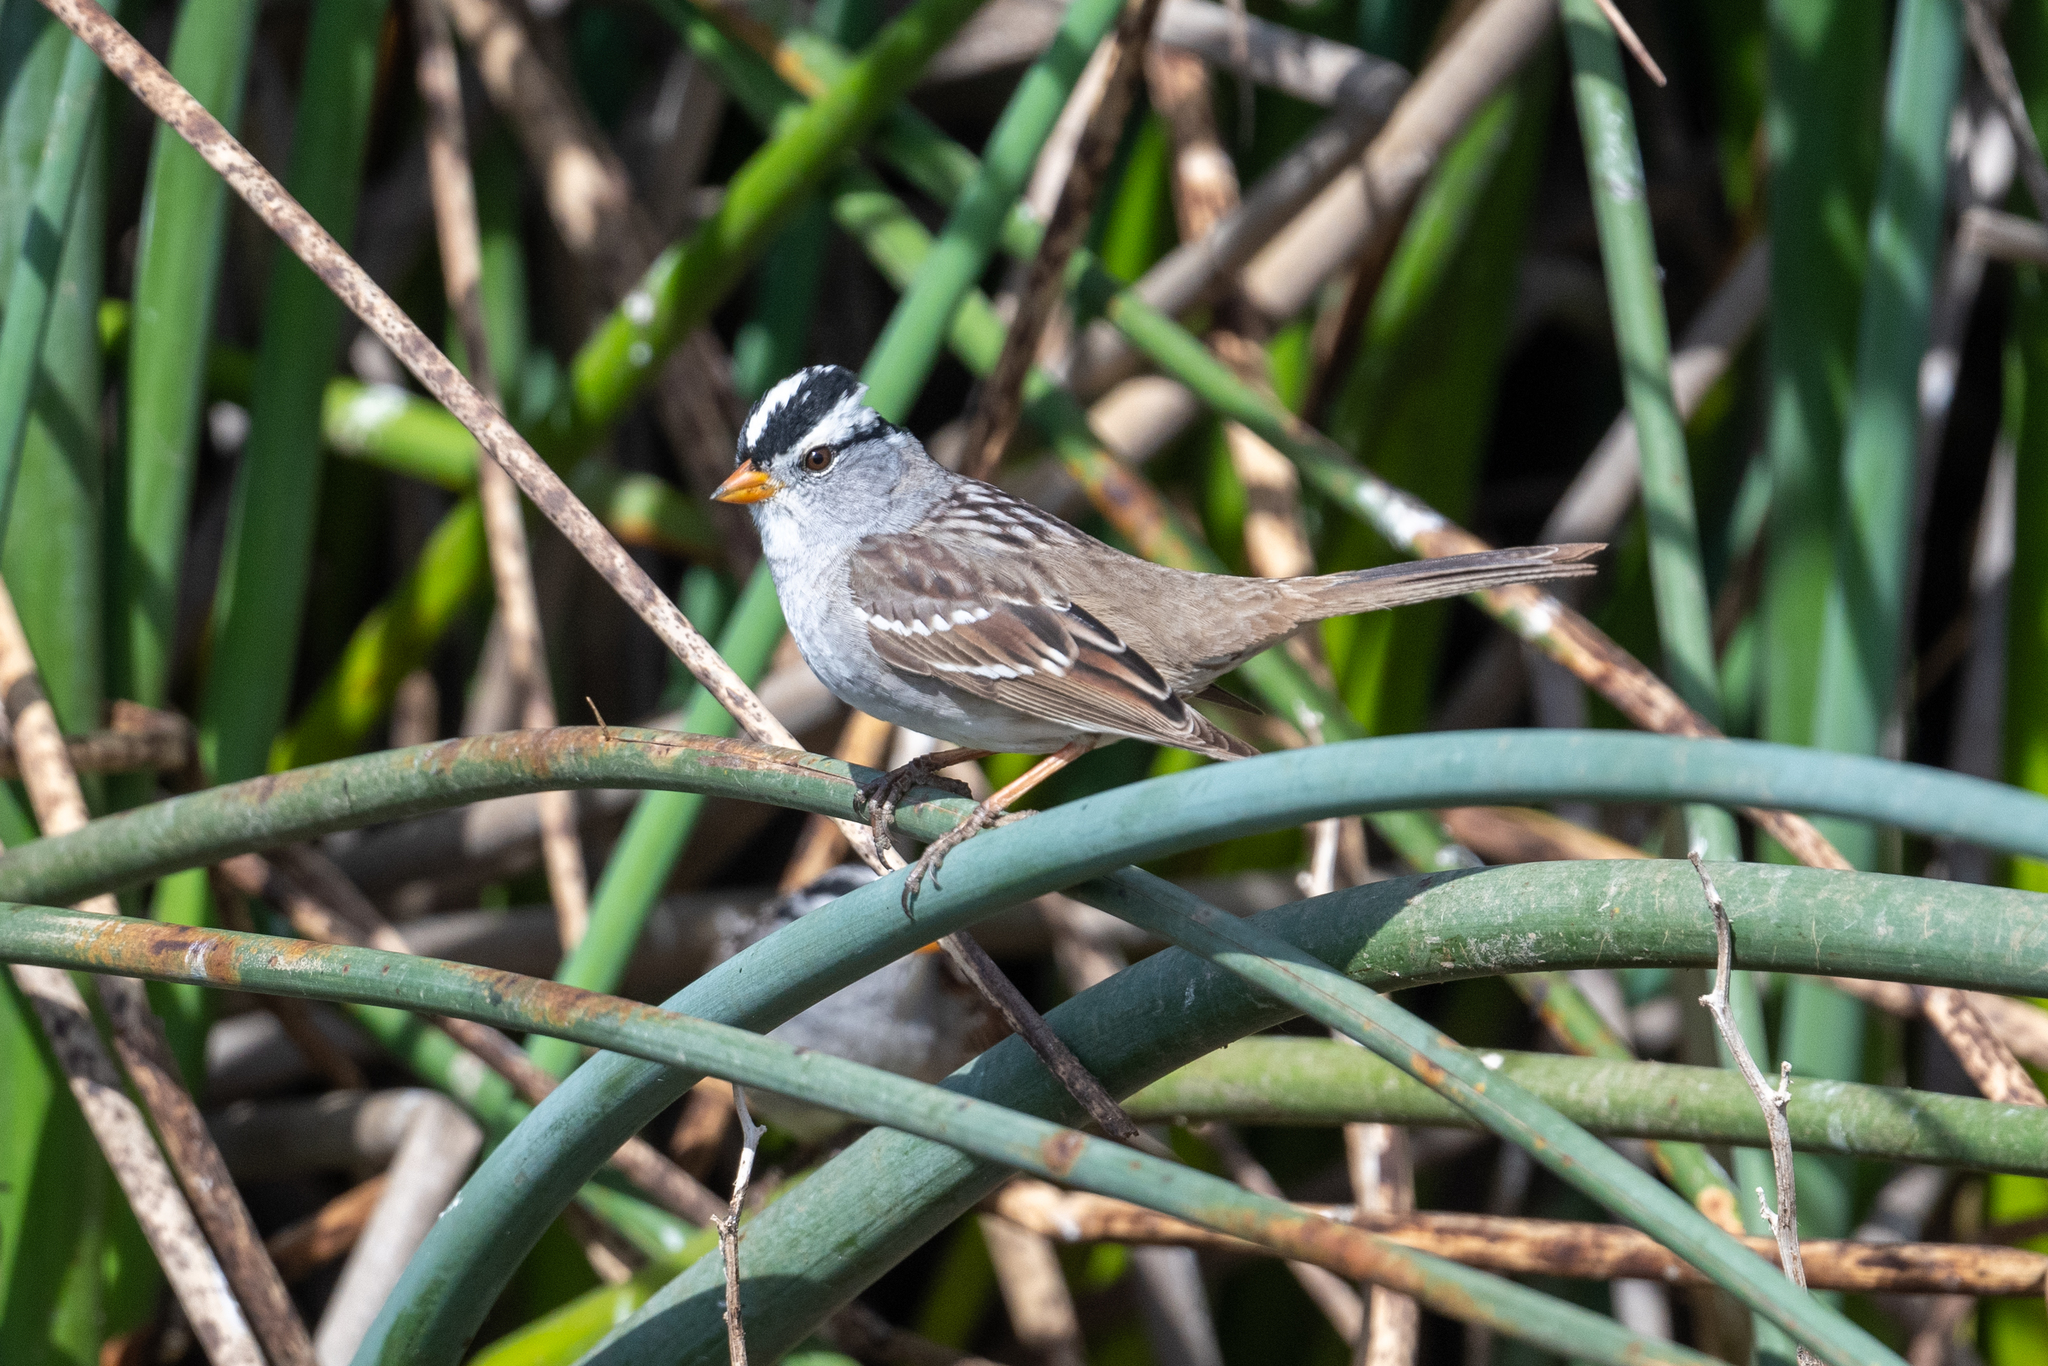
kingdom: Animalia
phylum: Chordata
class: Aves
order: Passeriformes
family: Passerellidae
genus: Zonotrichia
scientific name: Zonotrichia leucophrys
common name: White-crowned sparrow
